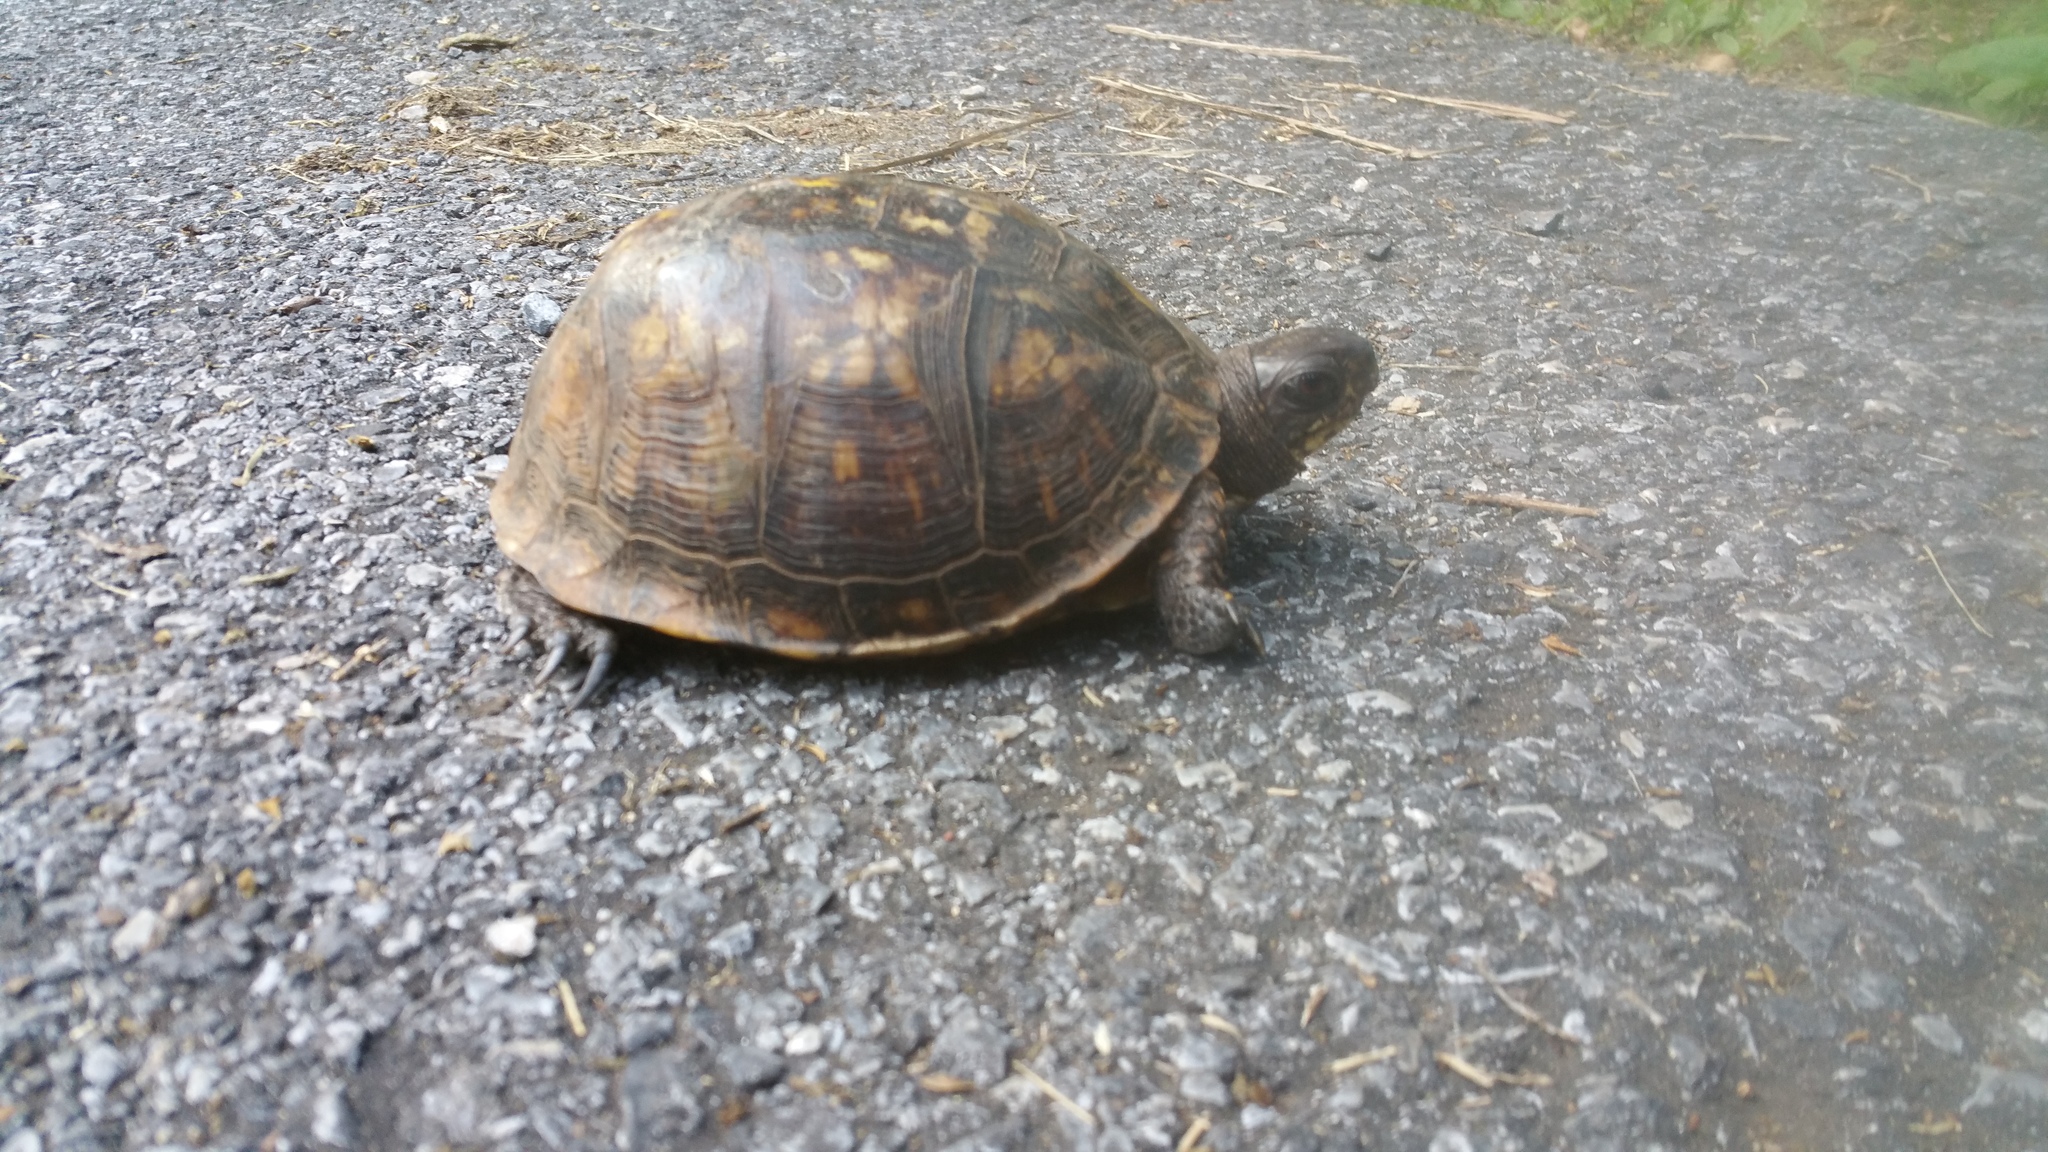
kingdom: Animalia
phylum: Chordata
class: Testudines
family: Emydidae
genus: Terrapene
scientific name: Terrapene carolina
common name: Common box turtle
